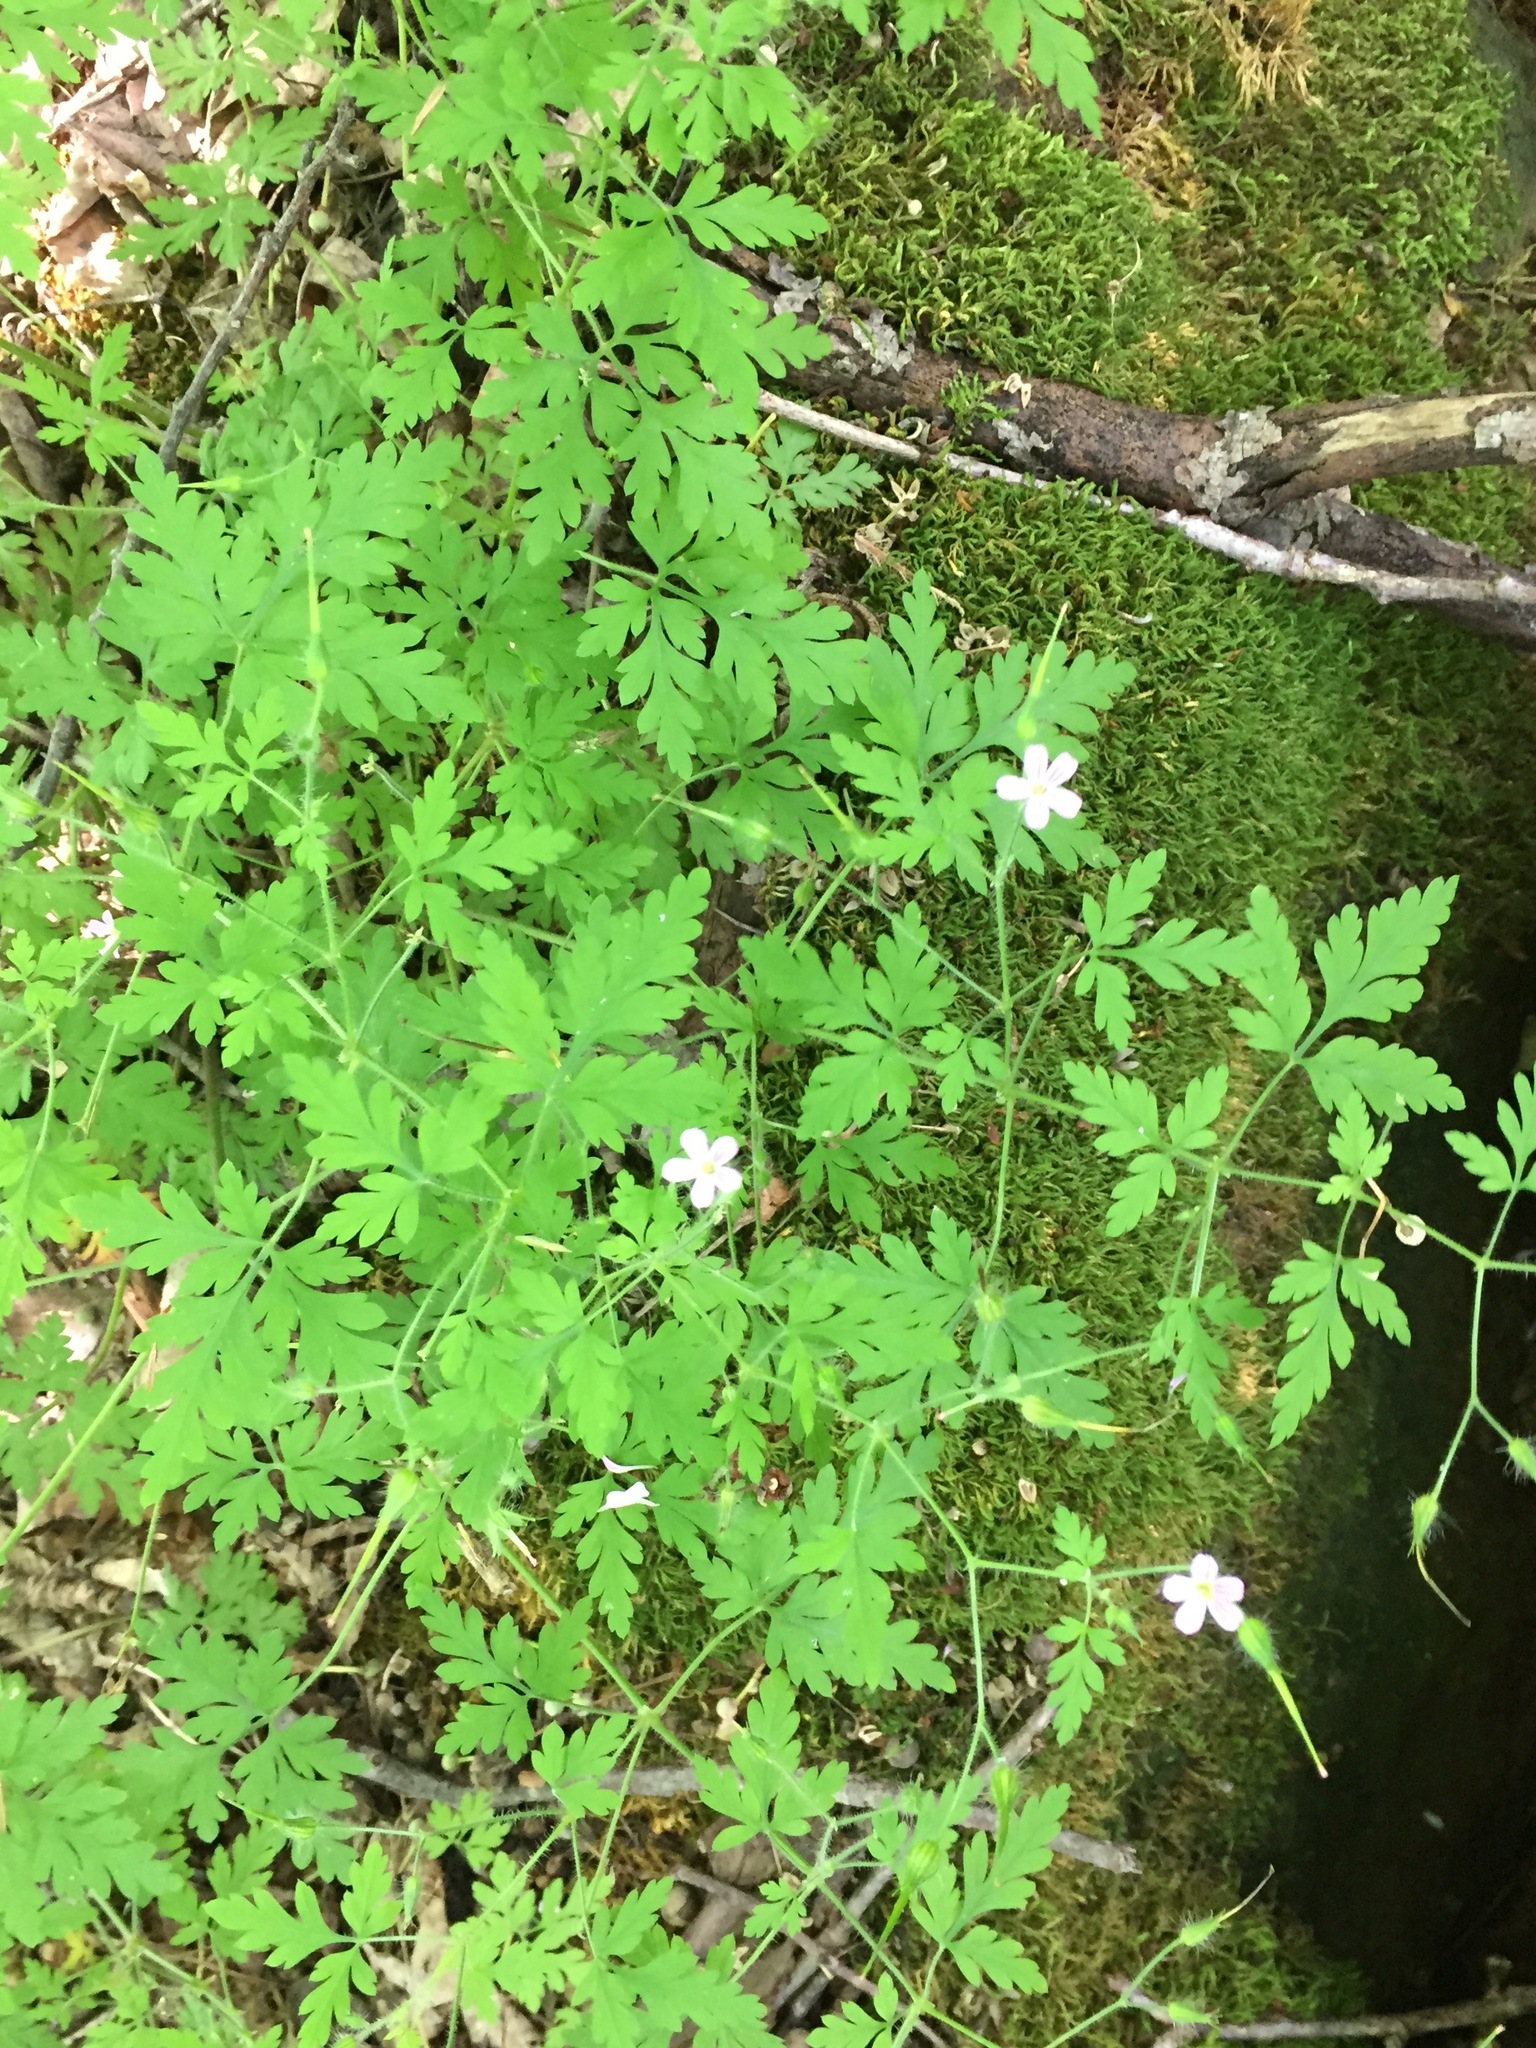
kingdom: Plantae
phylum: Tracheophyta
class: Magnoliopsida
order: Geraniales
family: Geraniaceae
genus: Geranium
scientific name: Geranium robertianum
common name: Herb-robert
